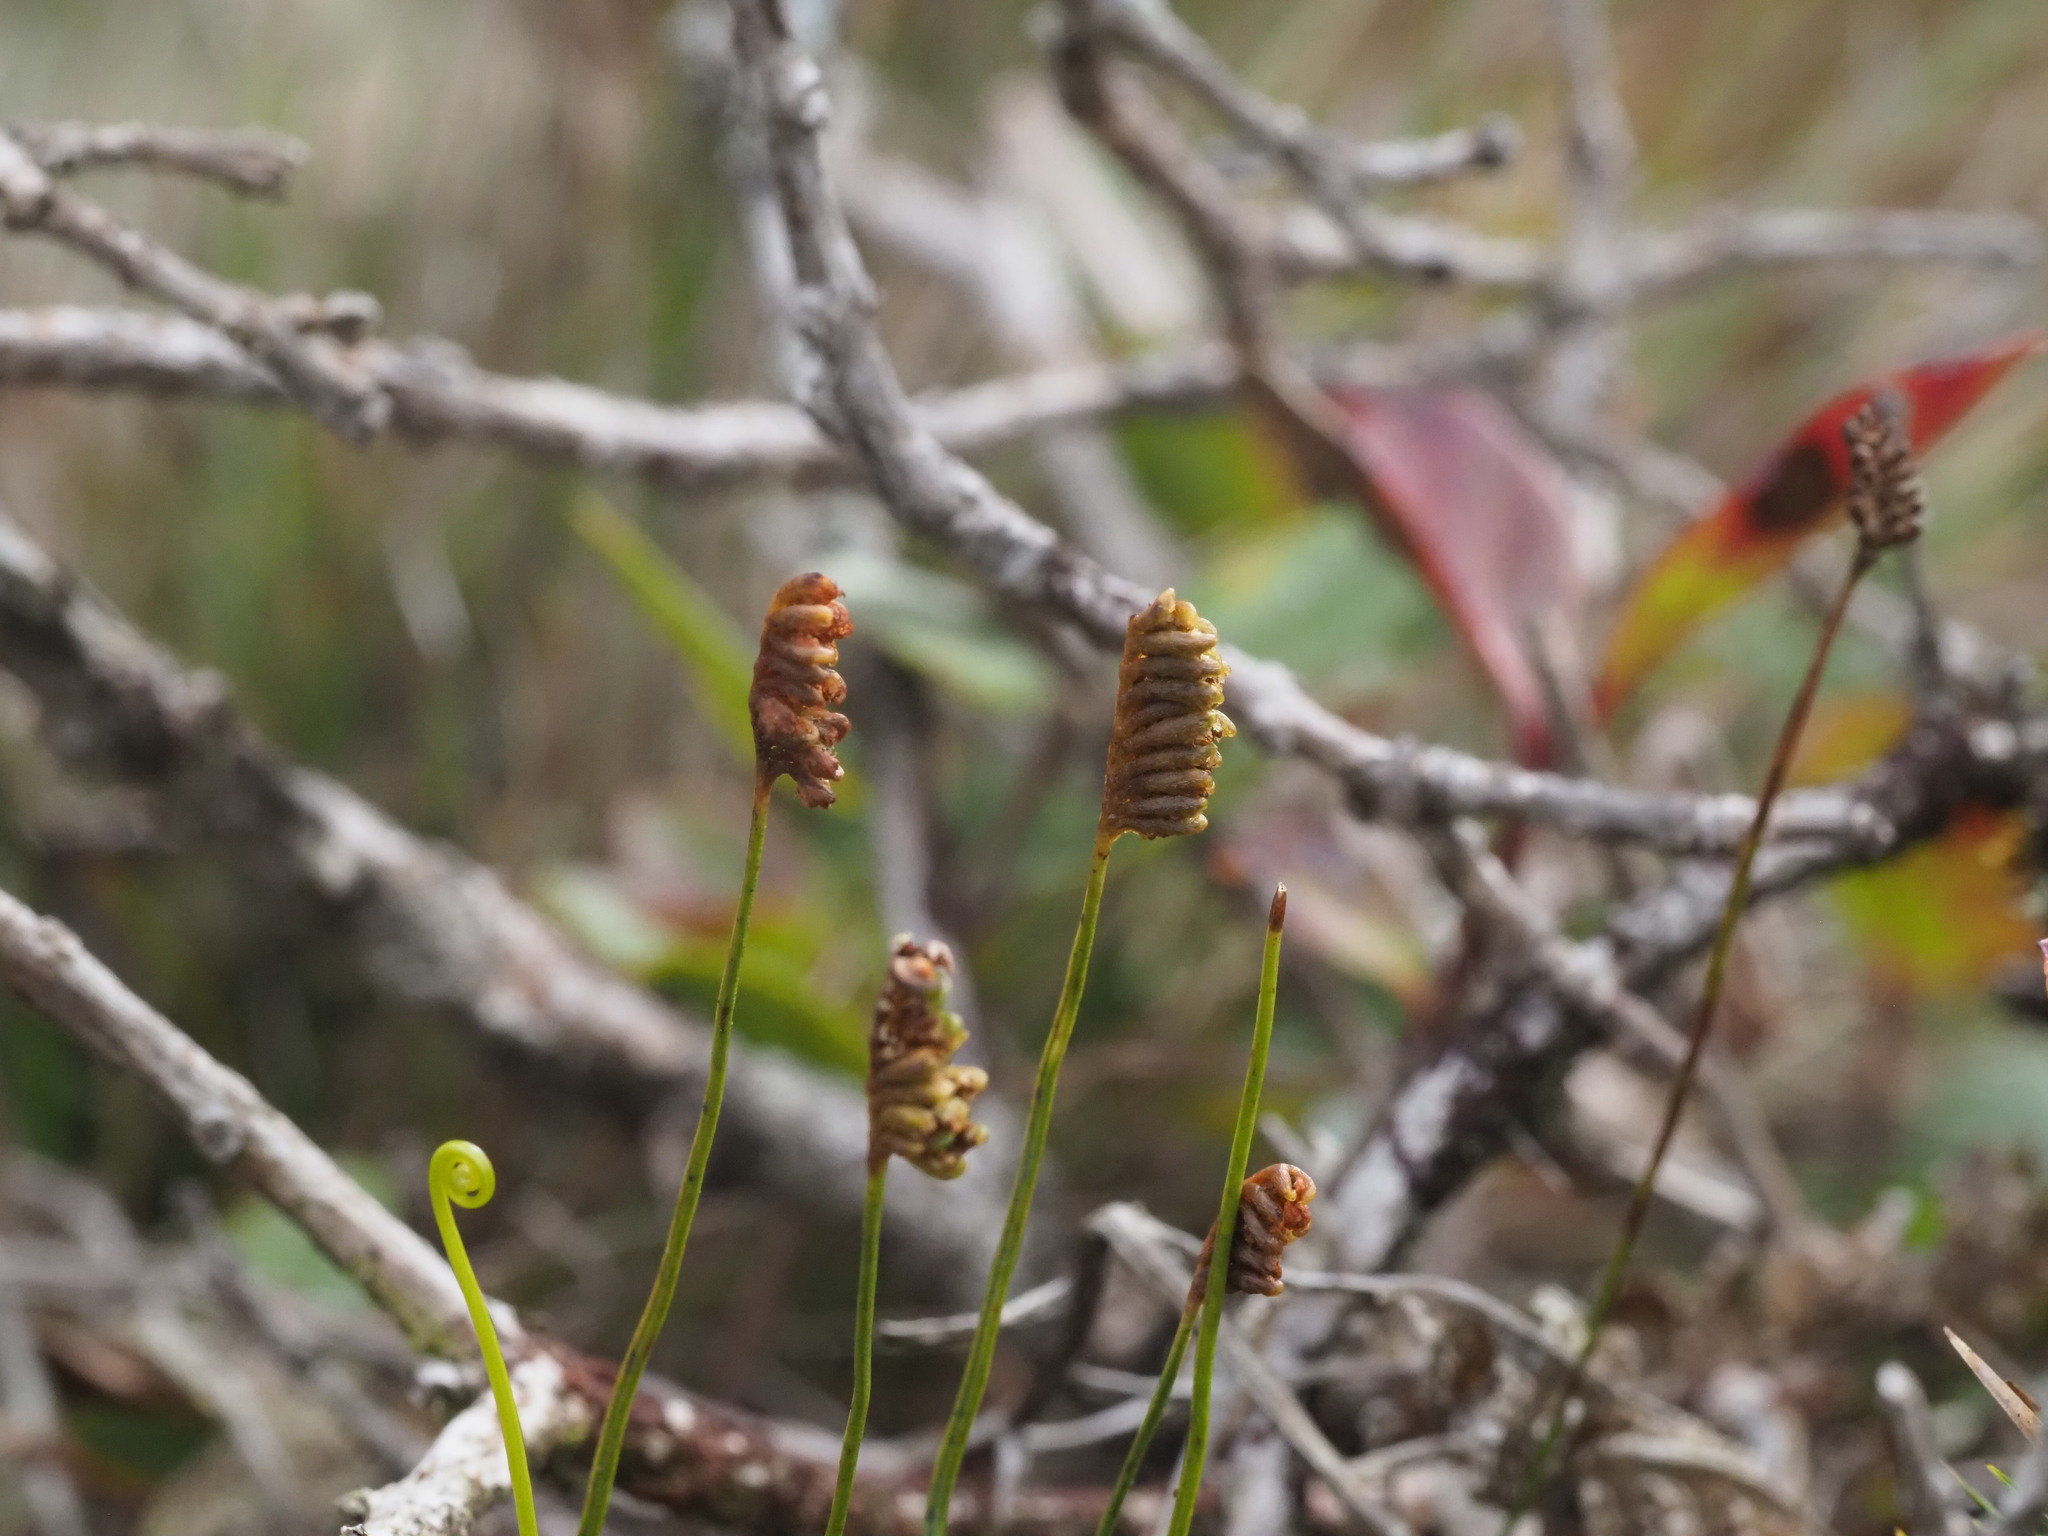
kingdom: Plantae
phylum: Tracheophyta
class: Polypodiopsida
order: Schizaeales
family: Schizaeaceae
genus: Microschizaea
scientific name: Microschizaea robusta
